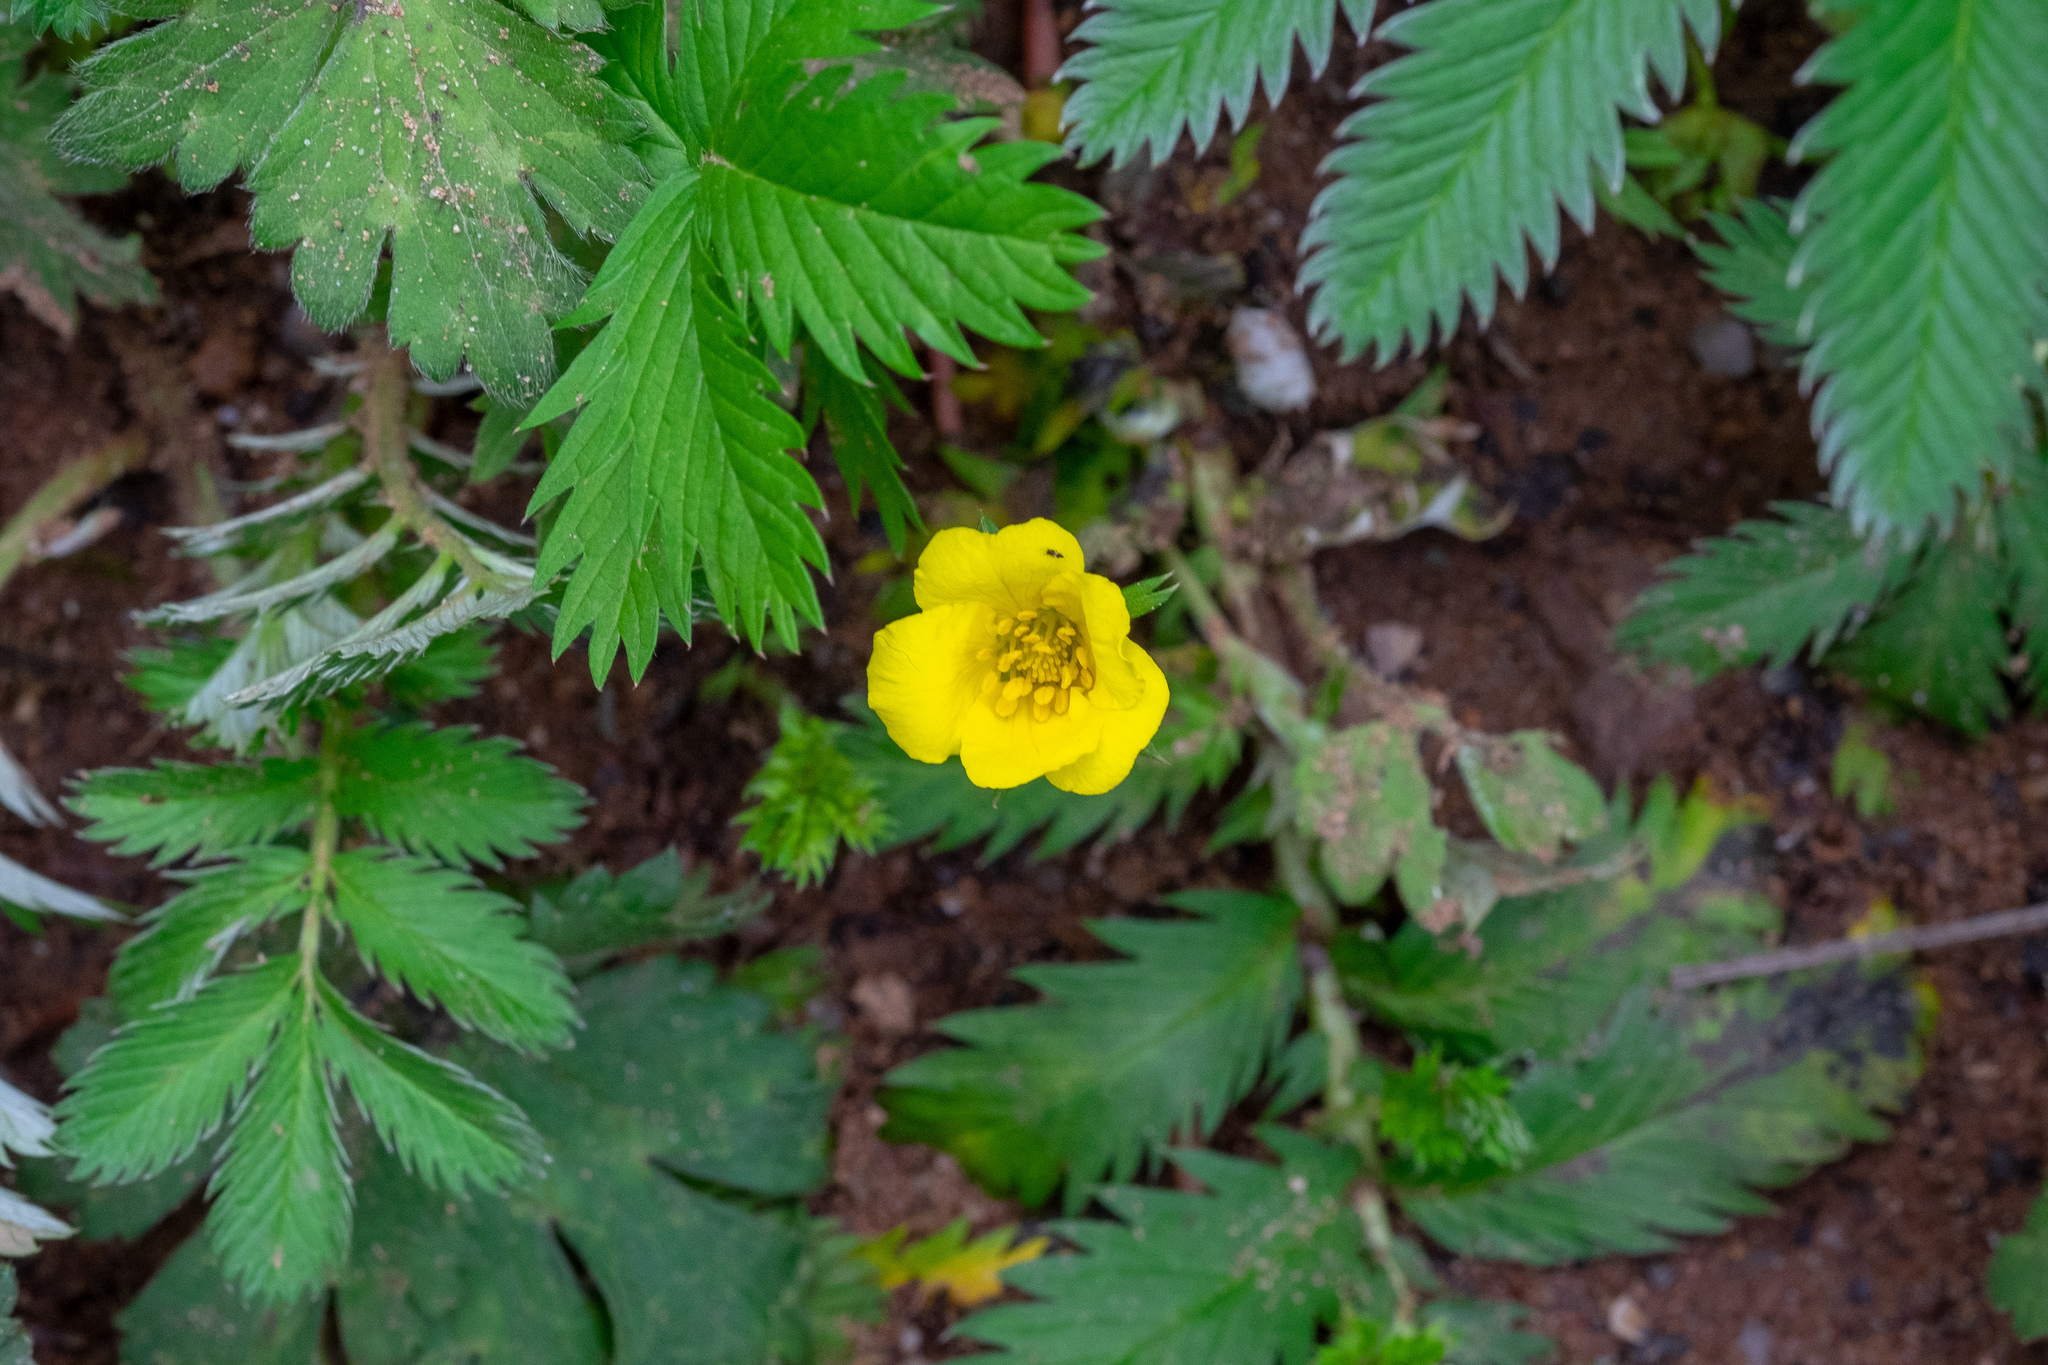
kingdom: Plantae
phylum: Tracheophyta
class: Magnoliopsida
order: Rosales
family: Rosaceae
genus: Argentina
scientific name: Argentina anserina
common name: Common silverweed
